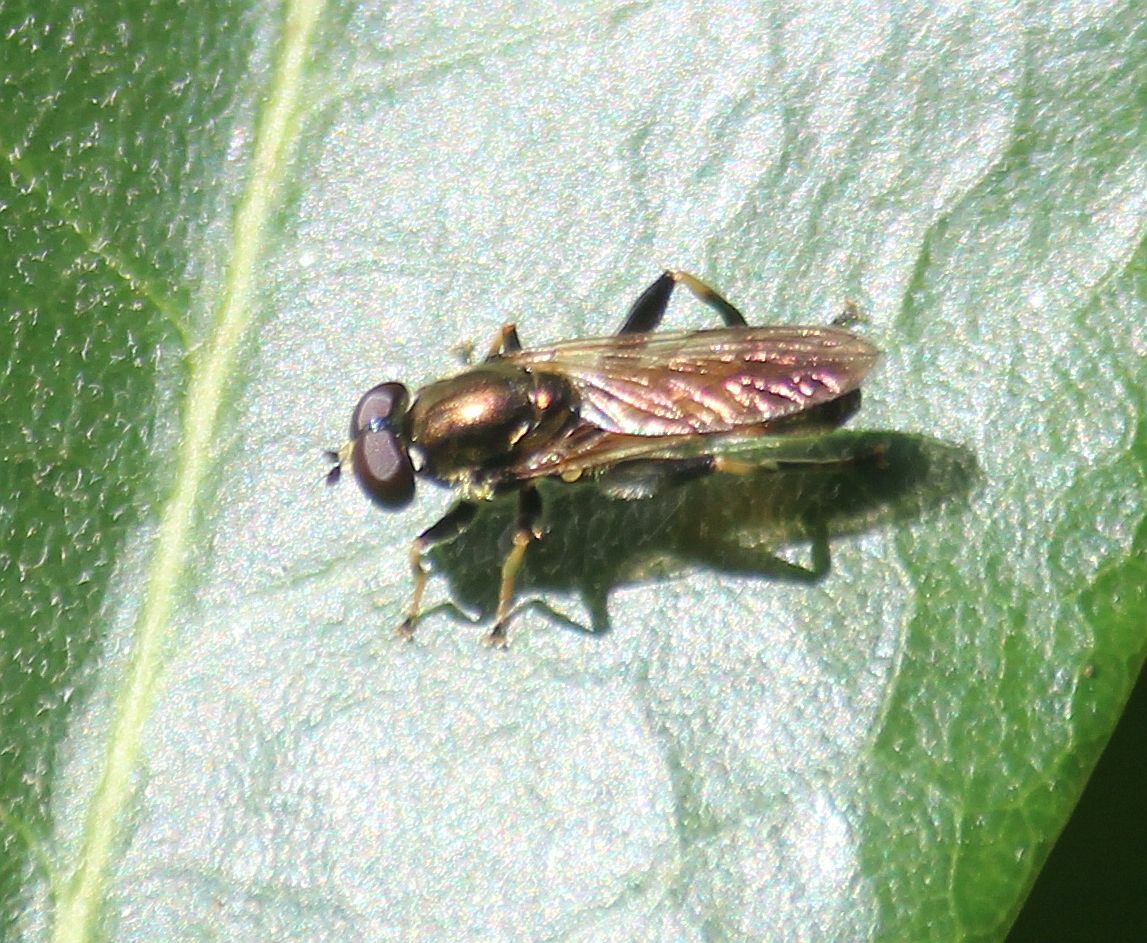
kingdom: Animalia
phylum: Arthropoda
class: Insecta
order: Diptera
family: Syrphidae
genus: Xylota
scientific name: Xylota segnis
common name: Brown-toed forest fly
